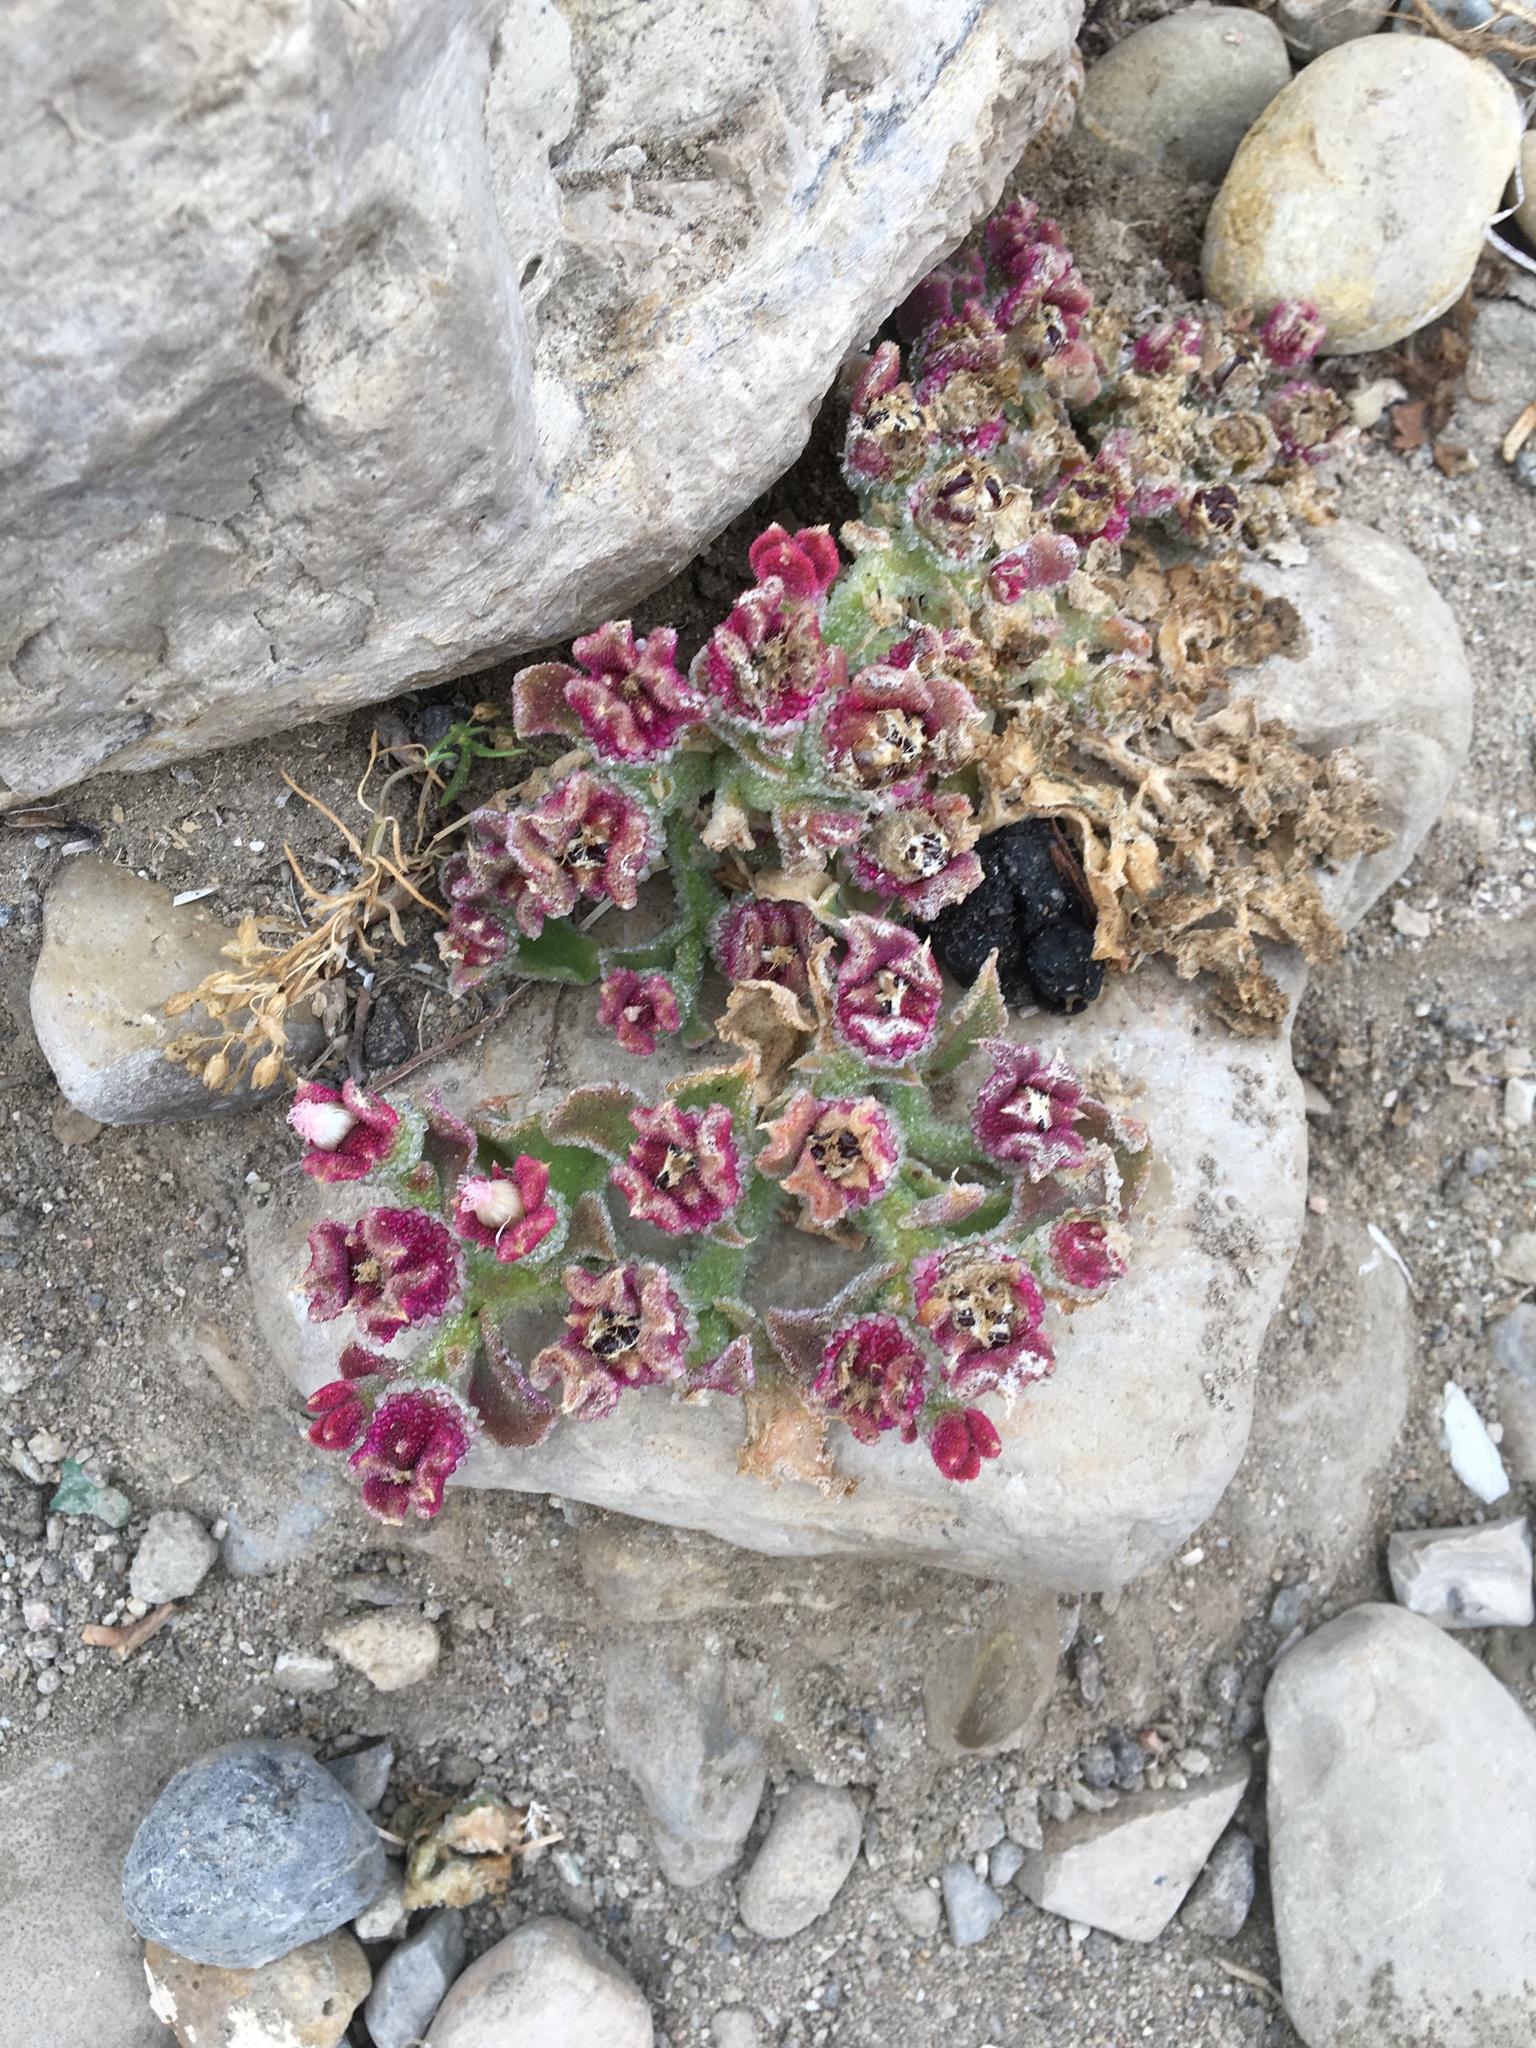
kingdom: Plantae
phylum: Tracheophyta
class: Magnoliopsida
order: Caryophyllales
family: Aizoaceae
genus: Mesembryanthemum
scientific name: Mesembryanthemum crystallinum
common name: Common iceplant
